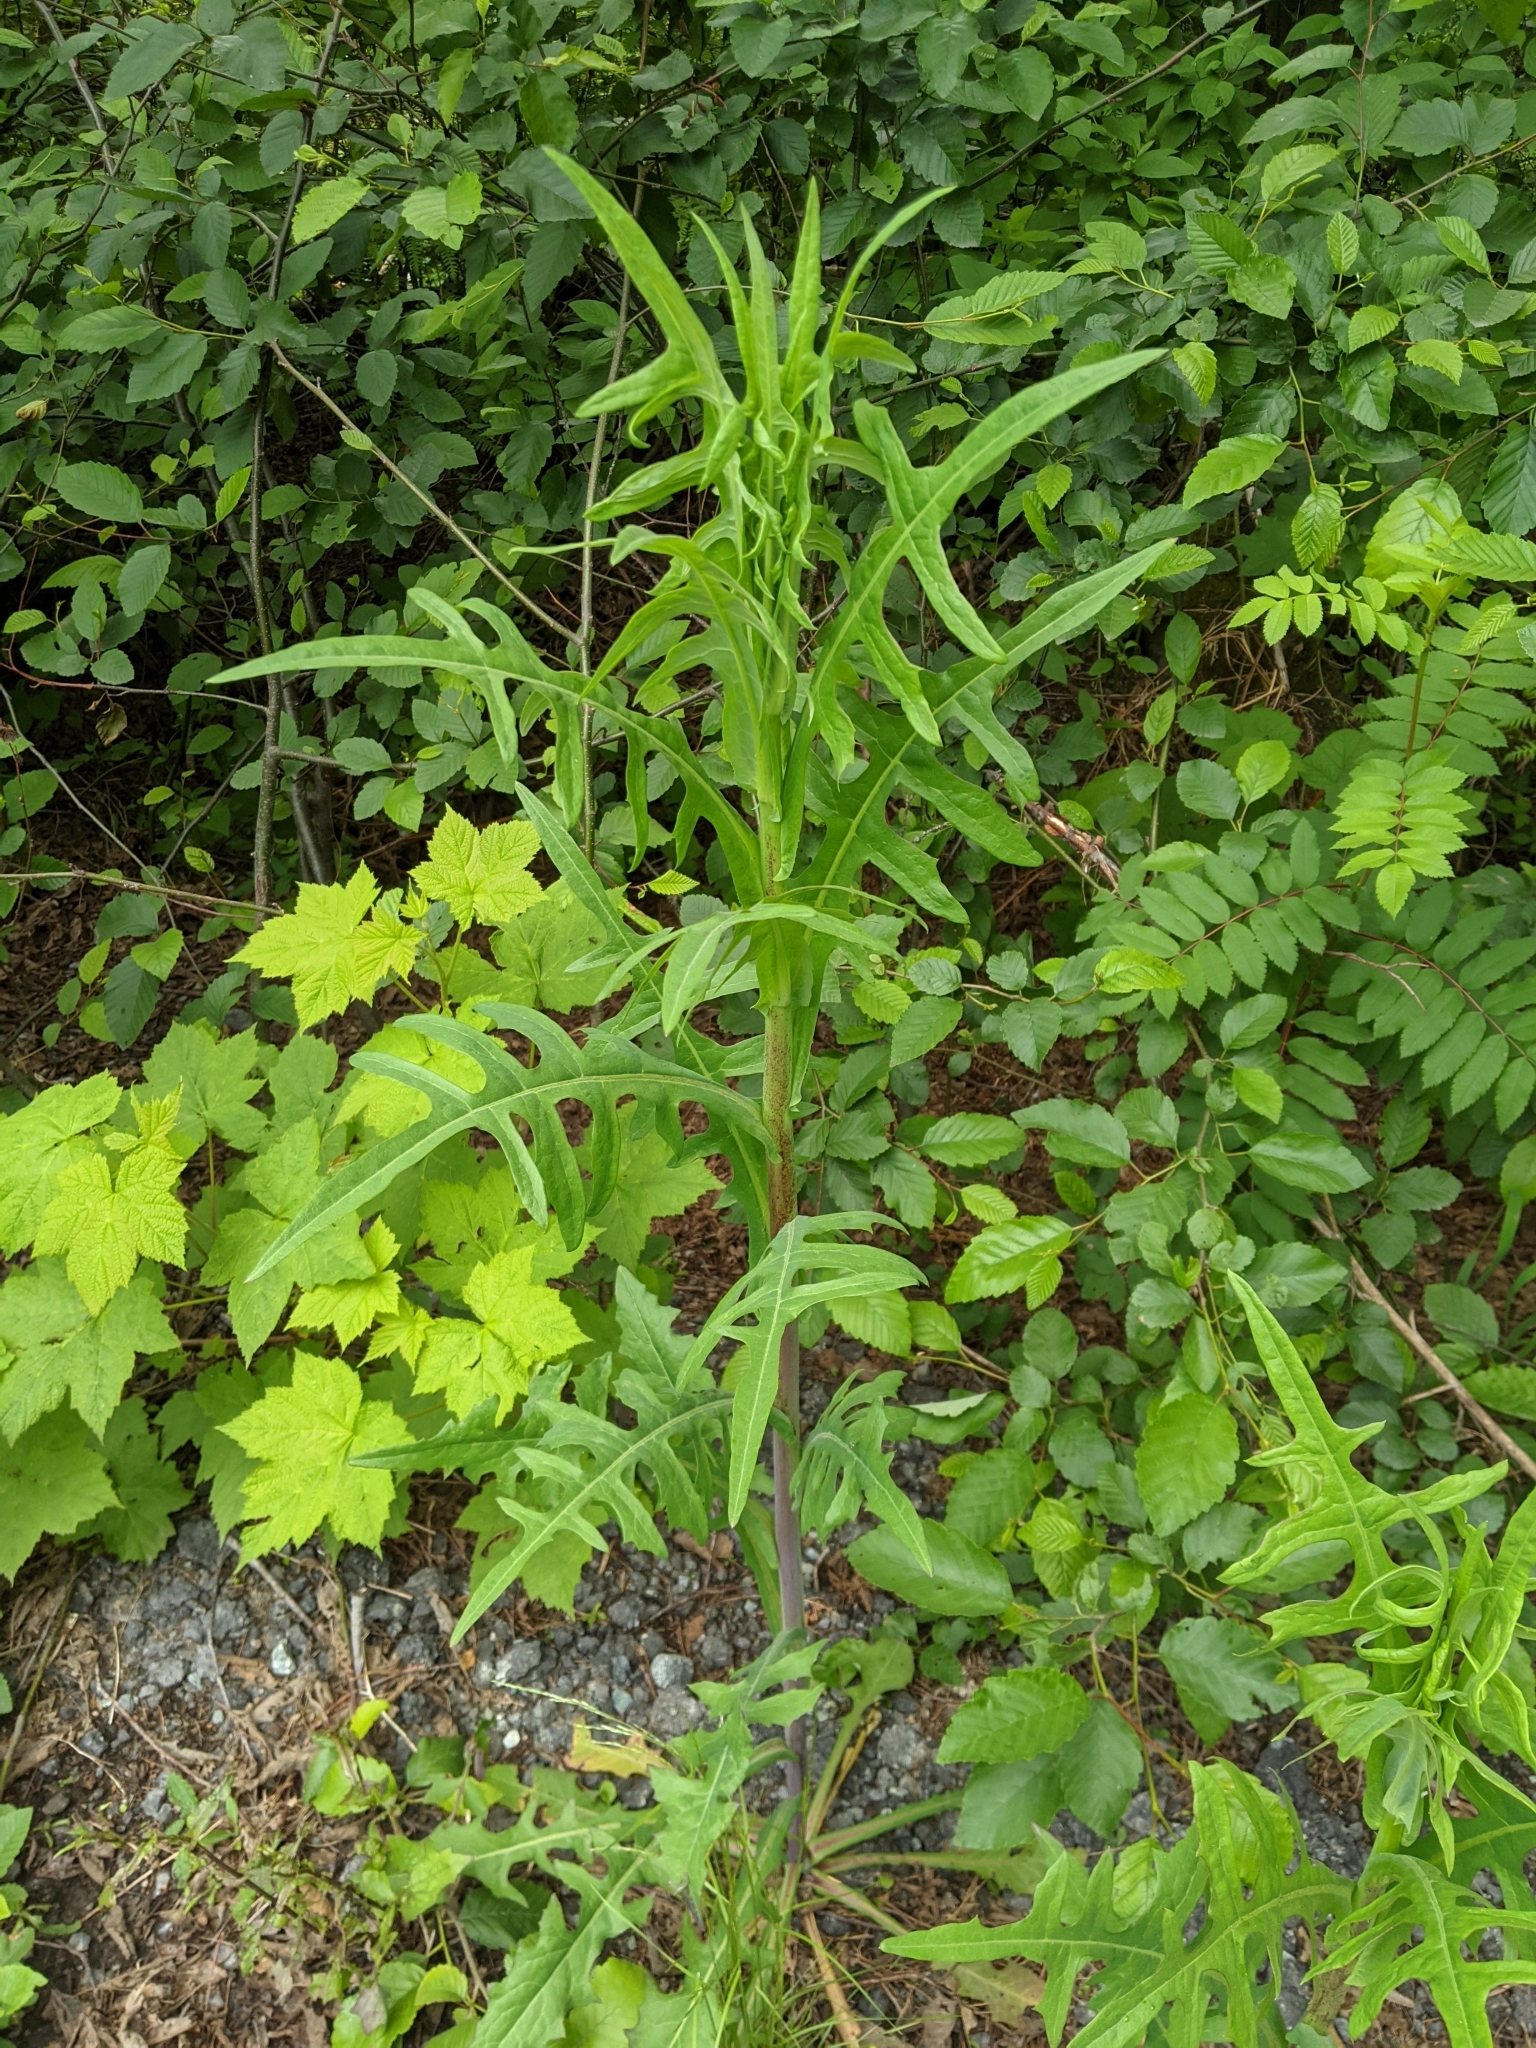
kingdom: Plantae
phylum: Tracheophyta
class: Magnoliopsida
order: Asterales
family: Asteraceae
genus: Lactuca
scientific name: Lactuca canadensis
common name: Canada lettuce
